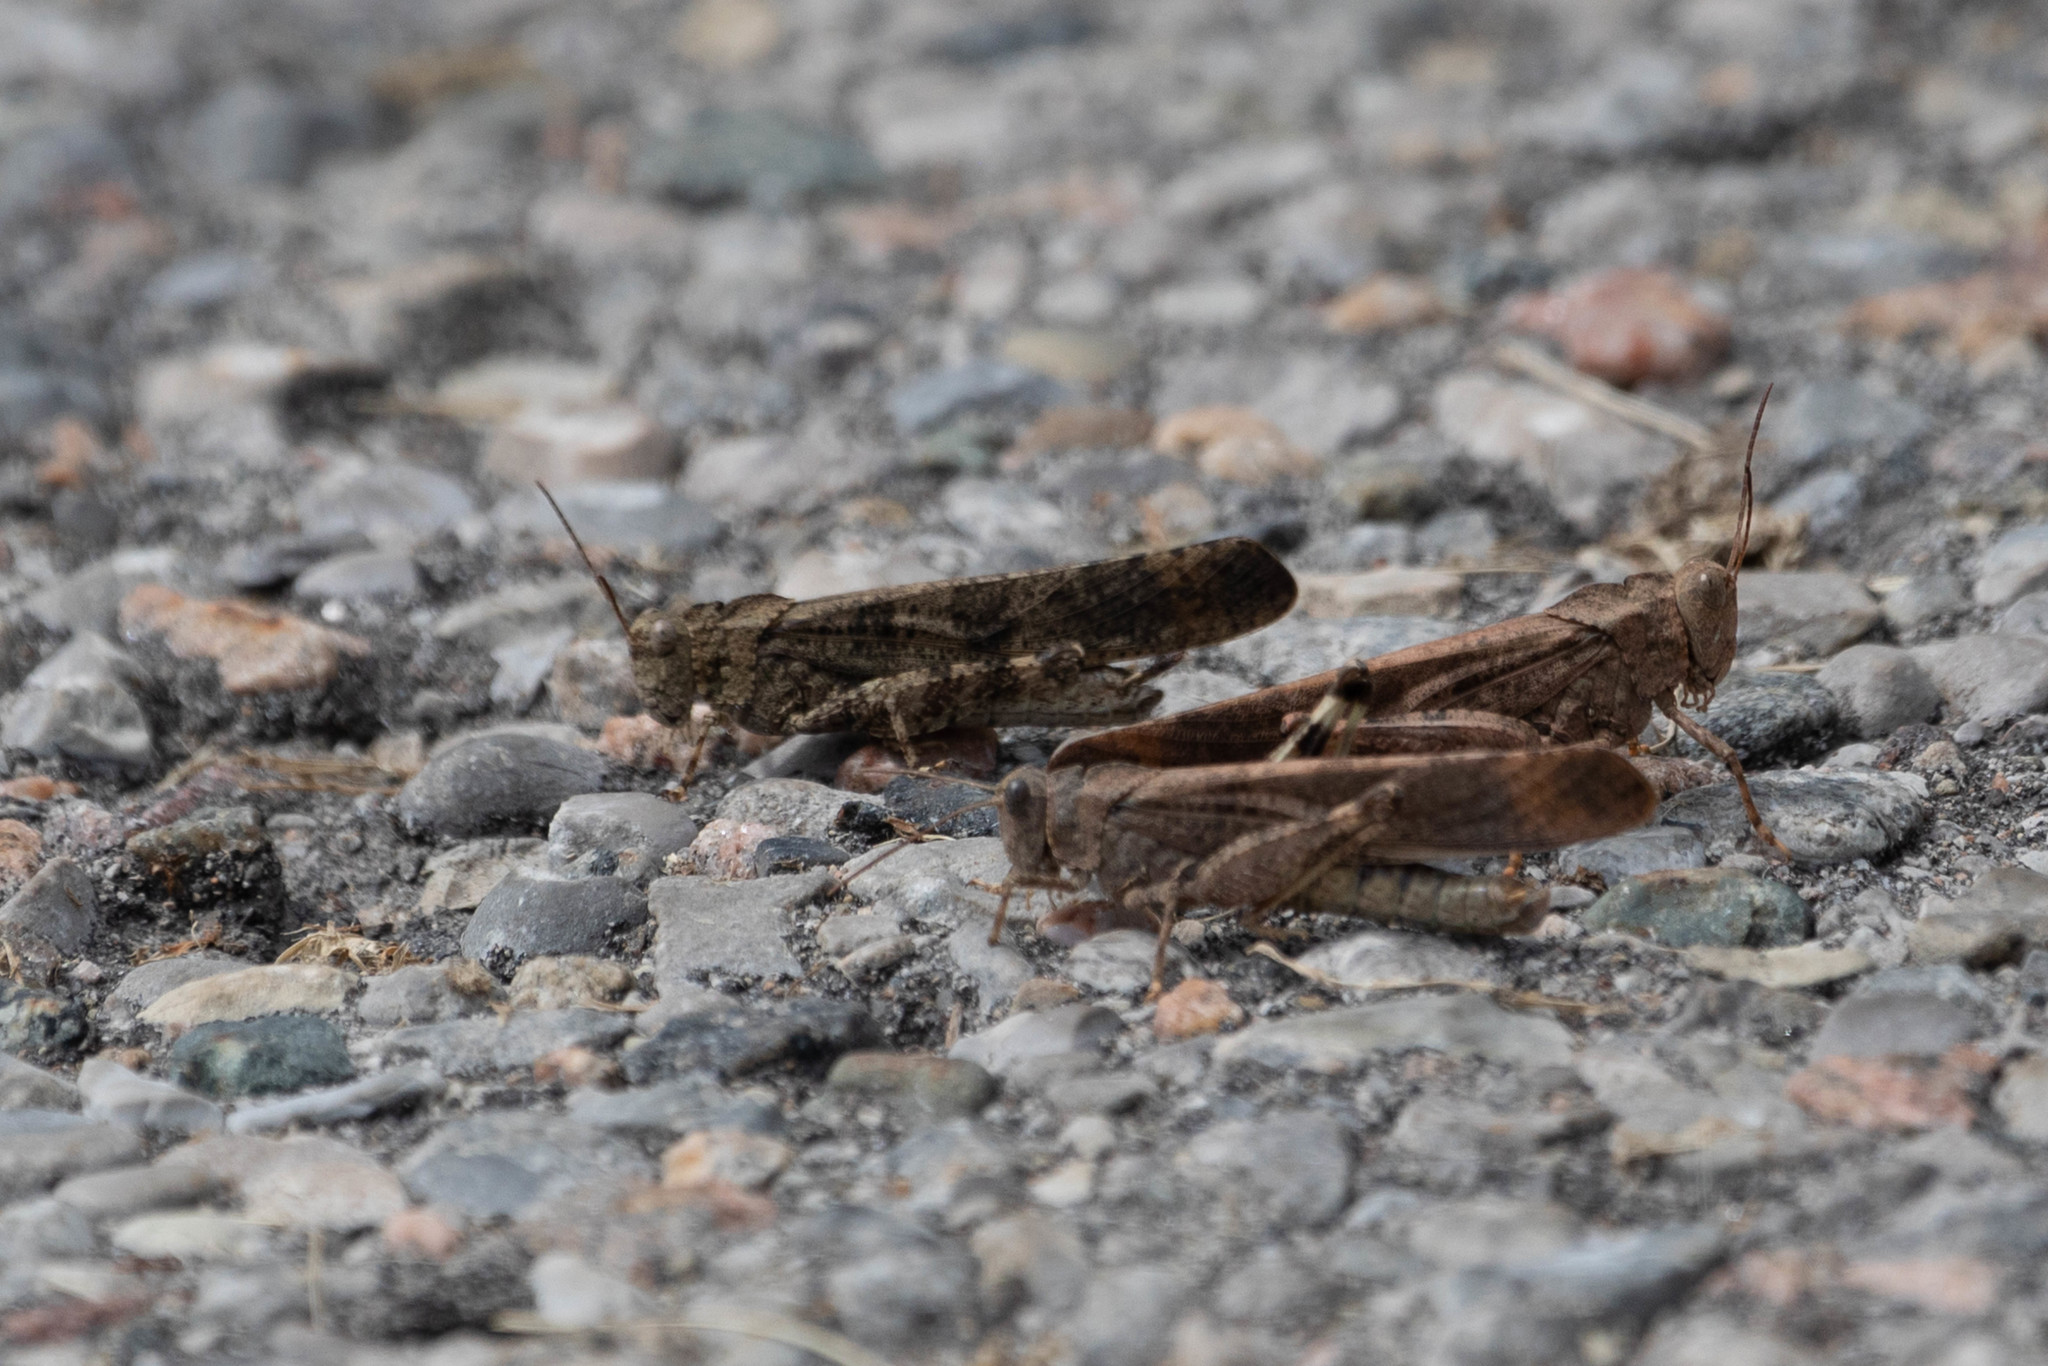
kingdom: Animalia
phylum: Arthropoda
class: Insecta
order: Orthoptera
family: Acrididae
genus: Dissosteira
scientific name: Dissosteira carolina
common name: Carolina grasshopper
